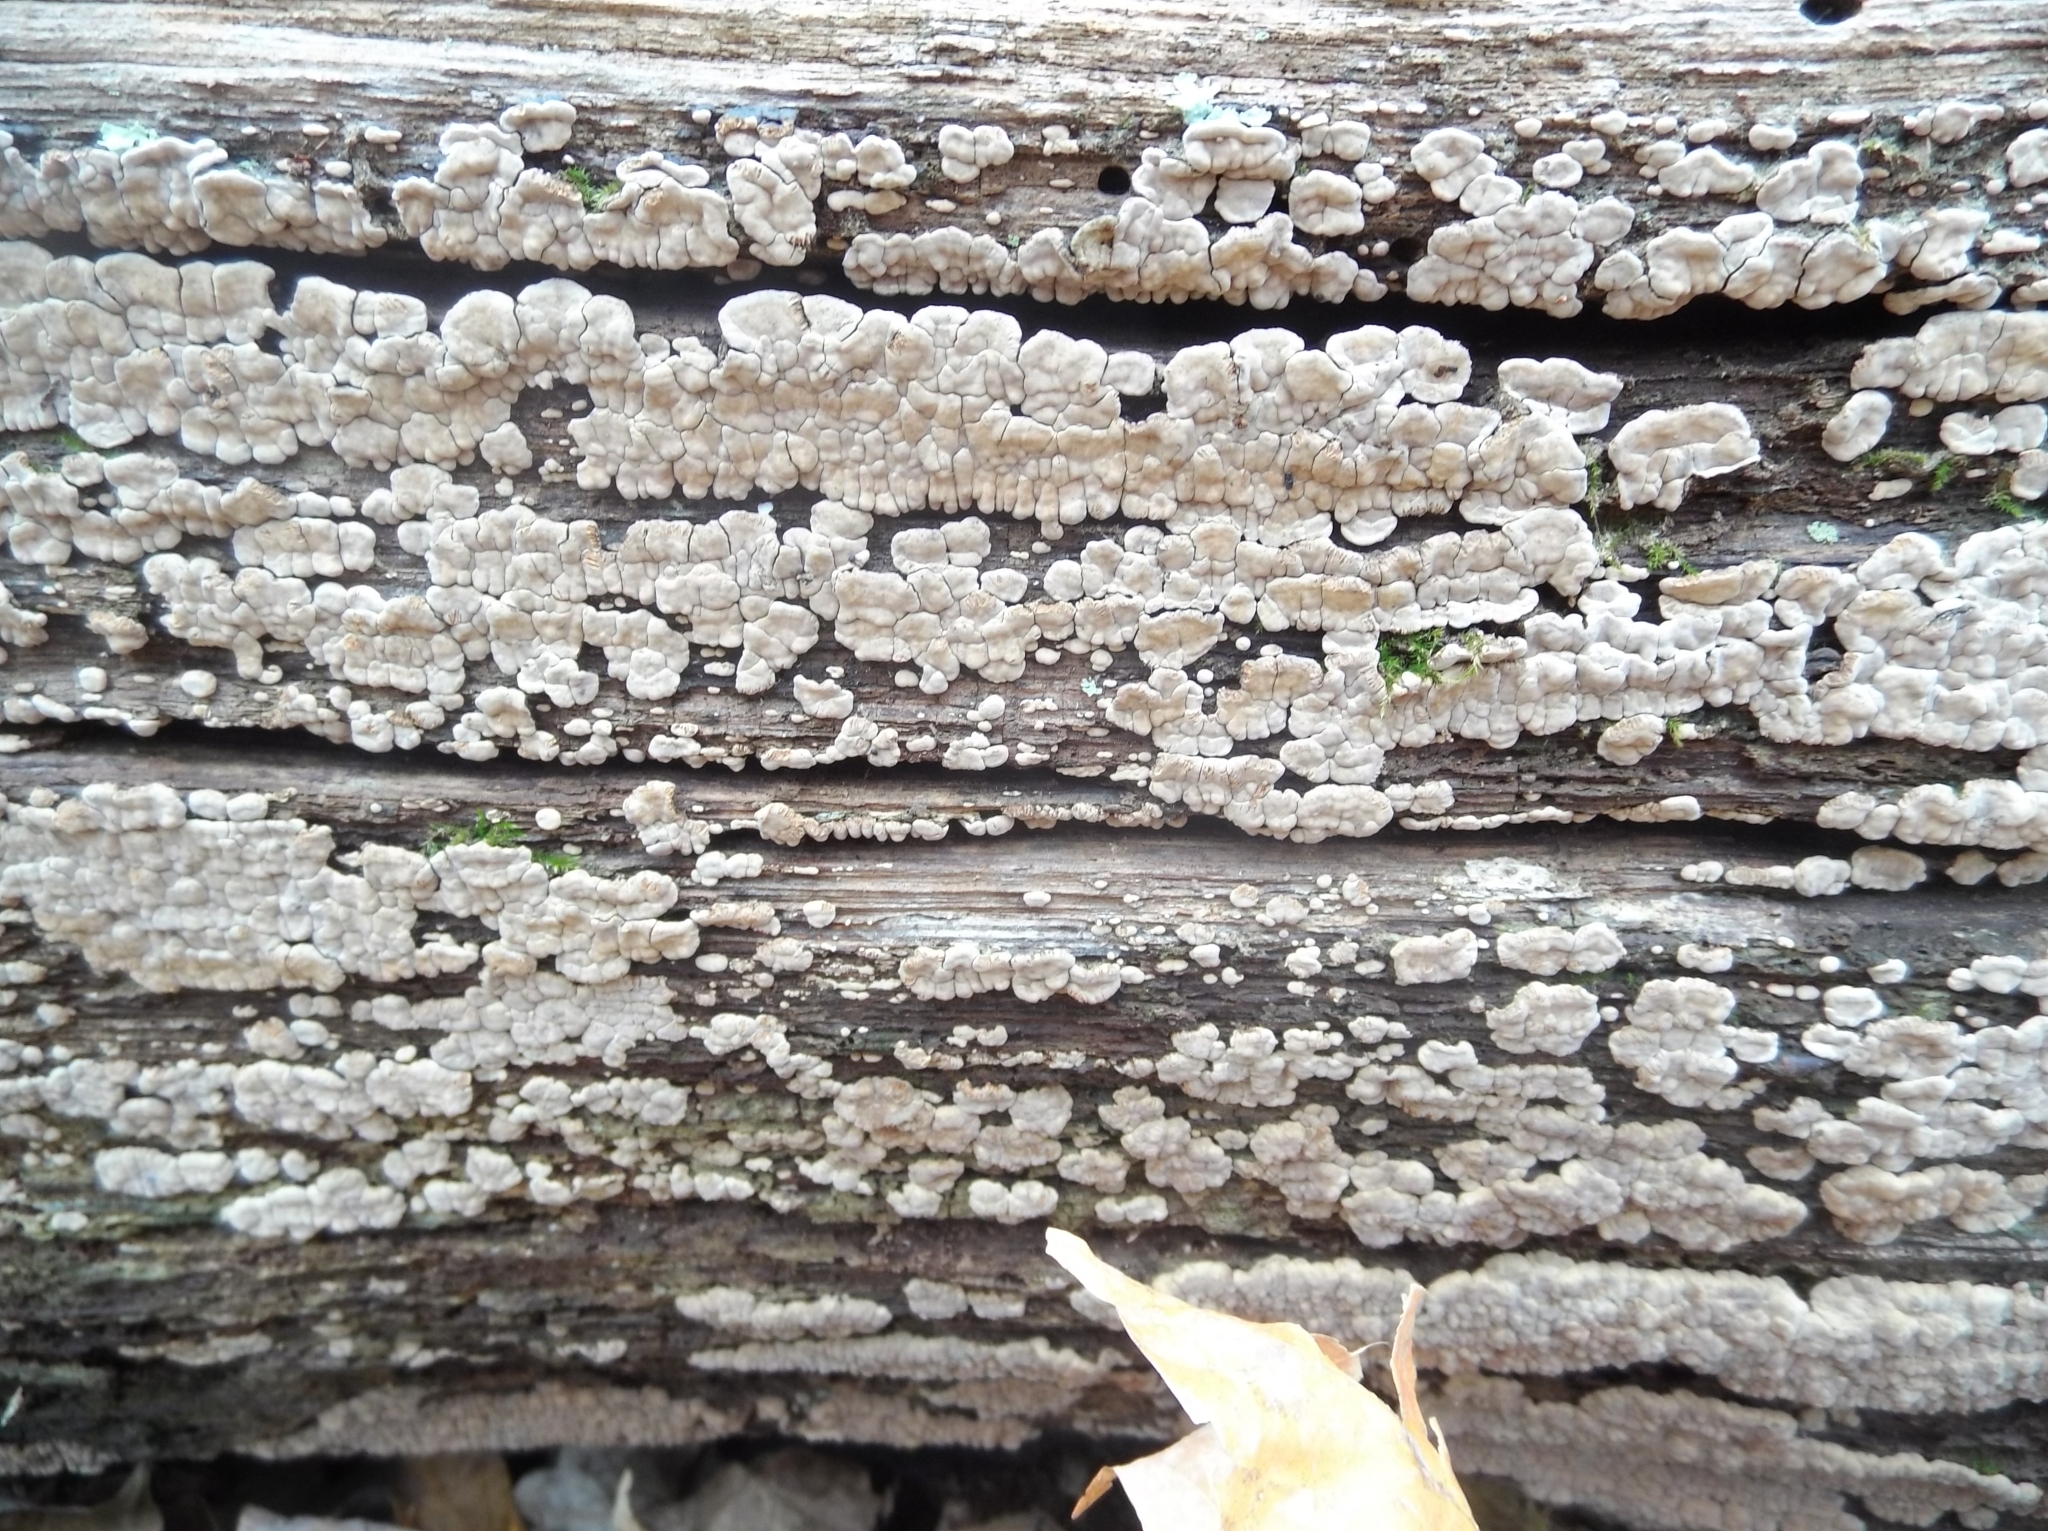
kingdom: Fungi
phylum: Basidiomycota
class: Agaricomycetes
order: Russulales
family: Stereaceae
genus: Xylobolus
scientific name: Xylobolus frustulatus
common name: Ceramic parchment
